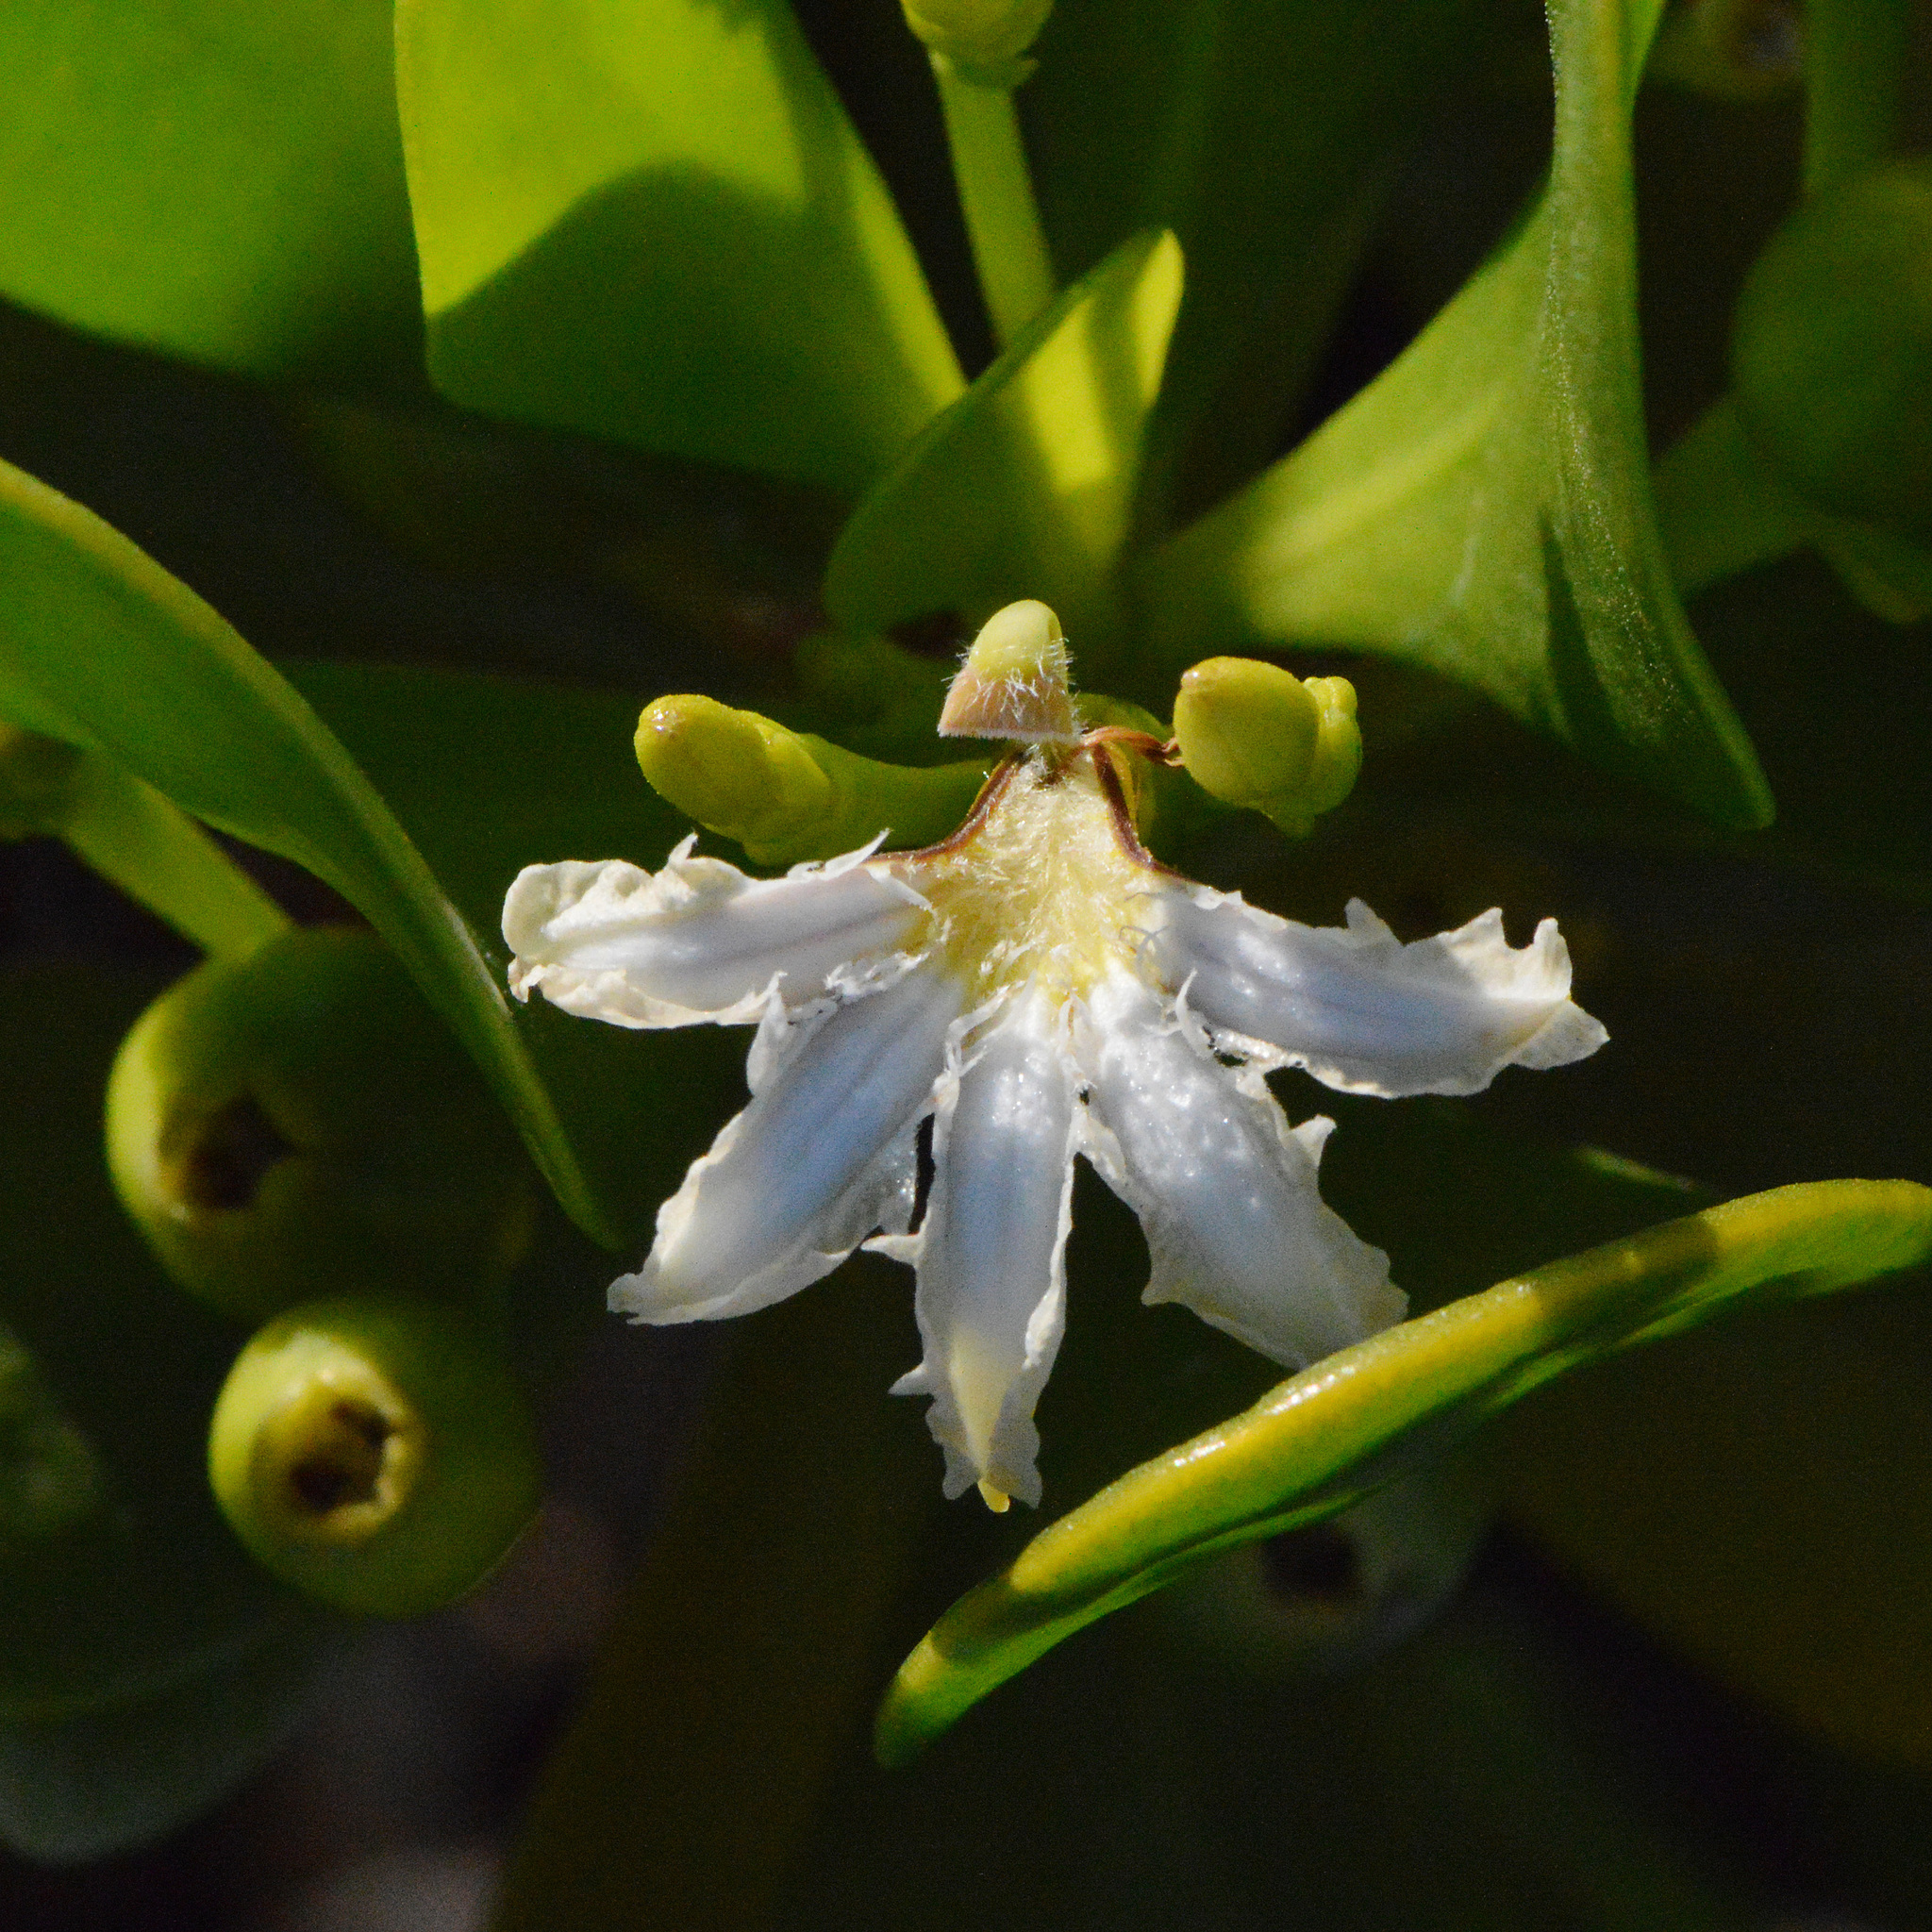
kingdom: Plantae
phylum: Tracheophyta
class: Magnoliopsida
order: Asterales
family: Goodeniaceae
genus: Scaevola
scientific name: Scaevola plumieri
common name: Gull feed
